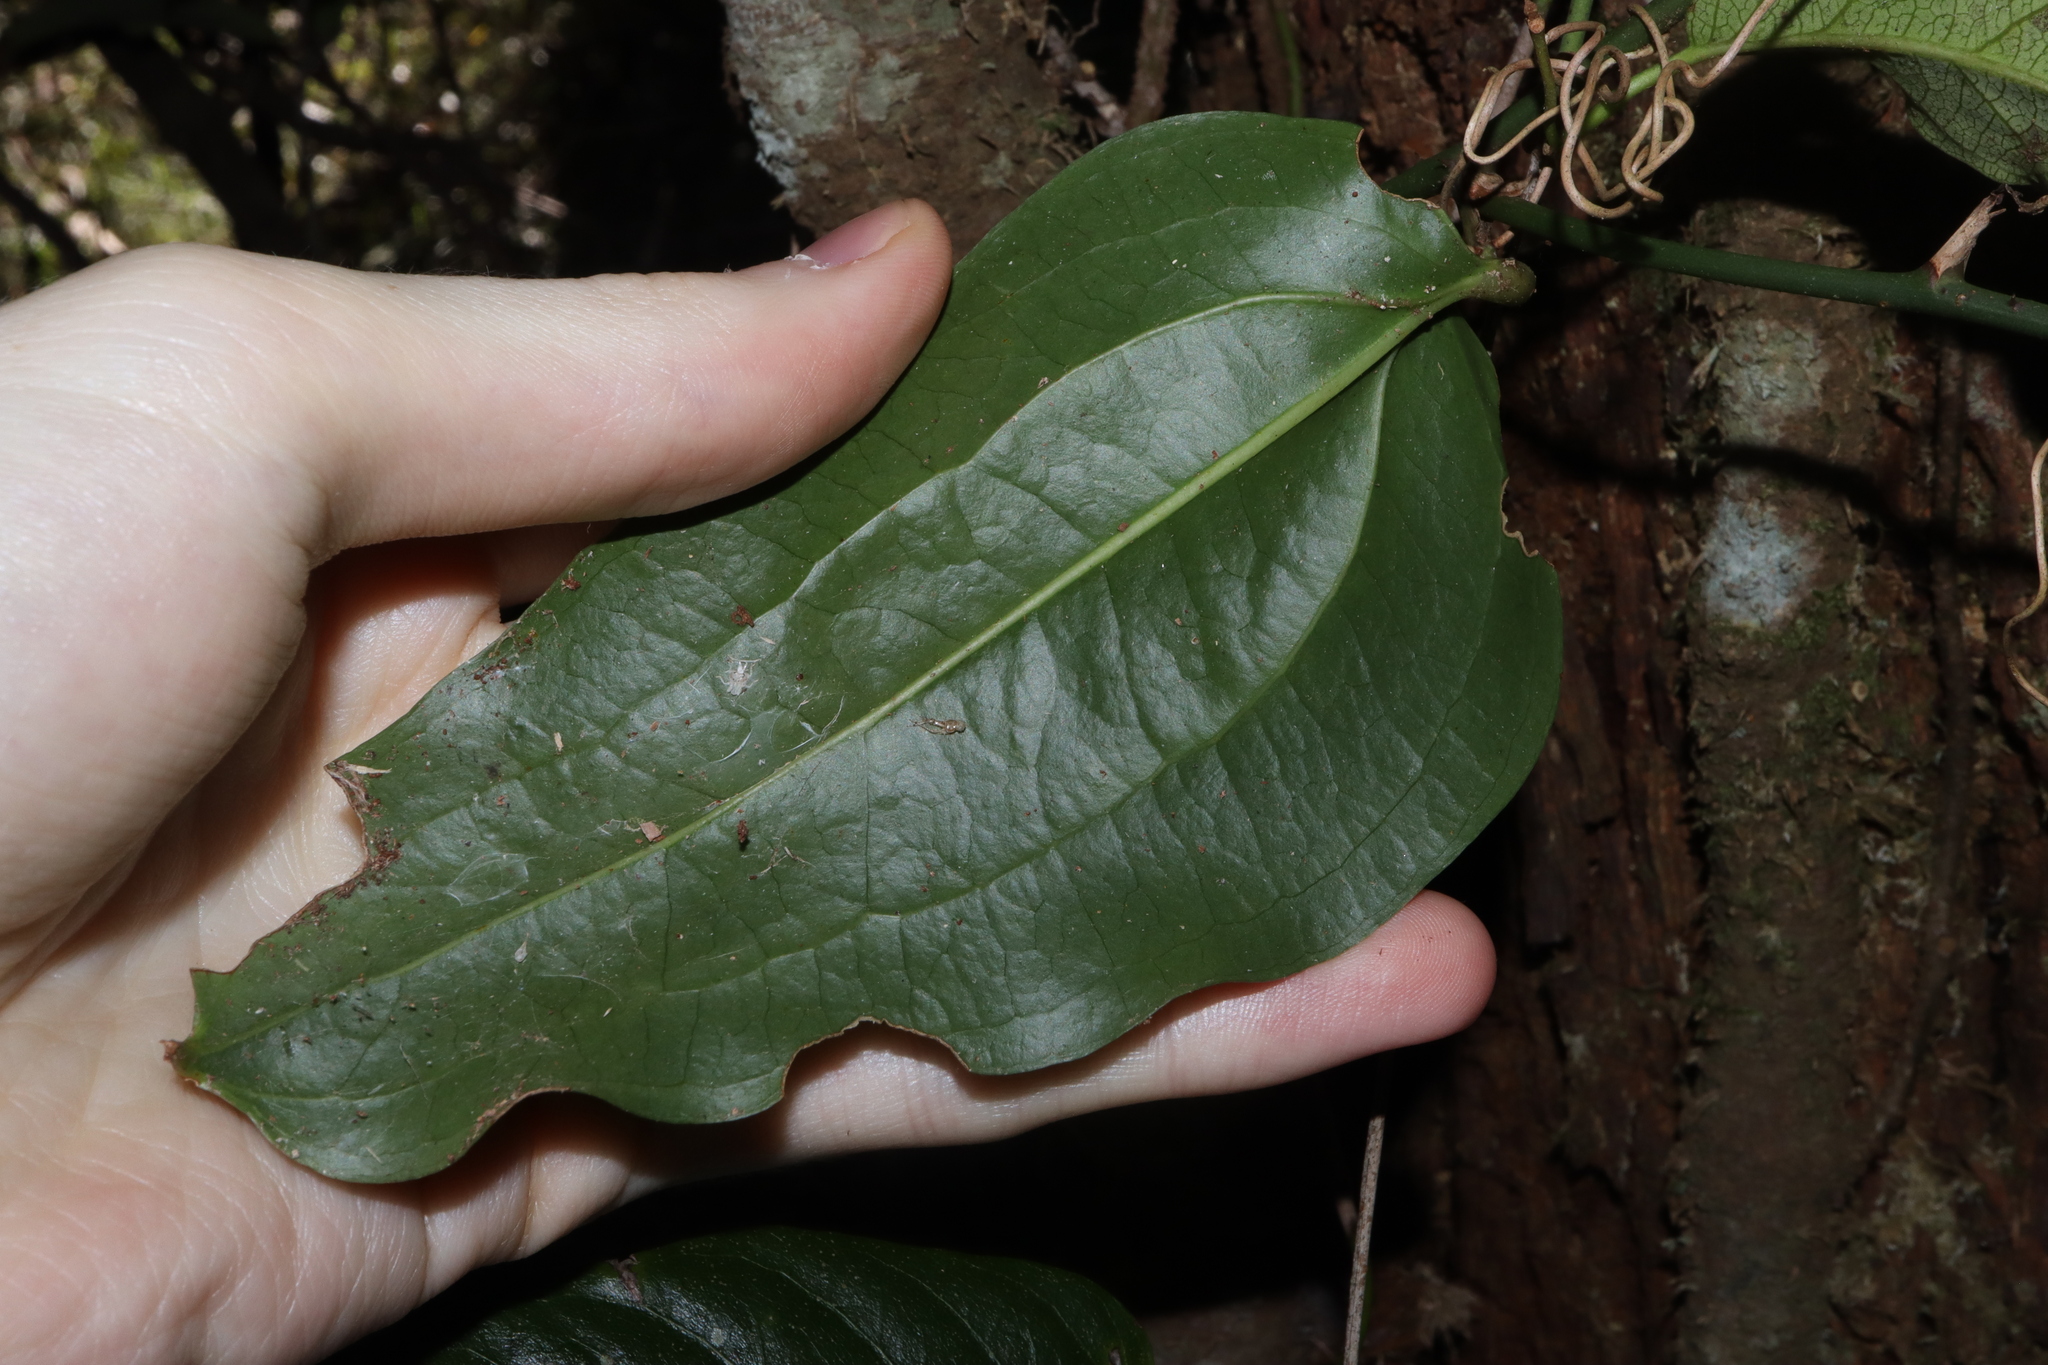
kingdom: Plantae
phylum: Tracheophyta
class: Liliopsida
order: Liliales
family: Smilacaceae
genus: Smilax
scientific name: Smilax australis
